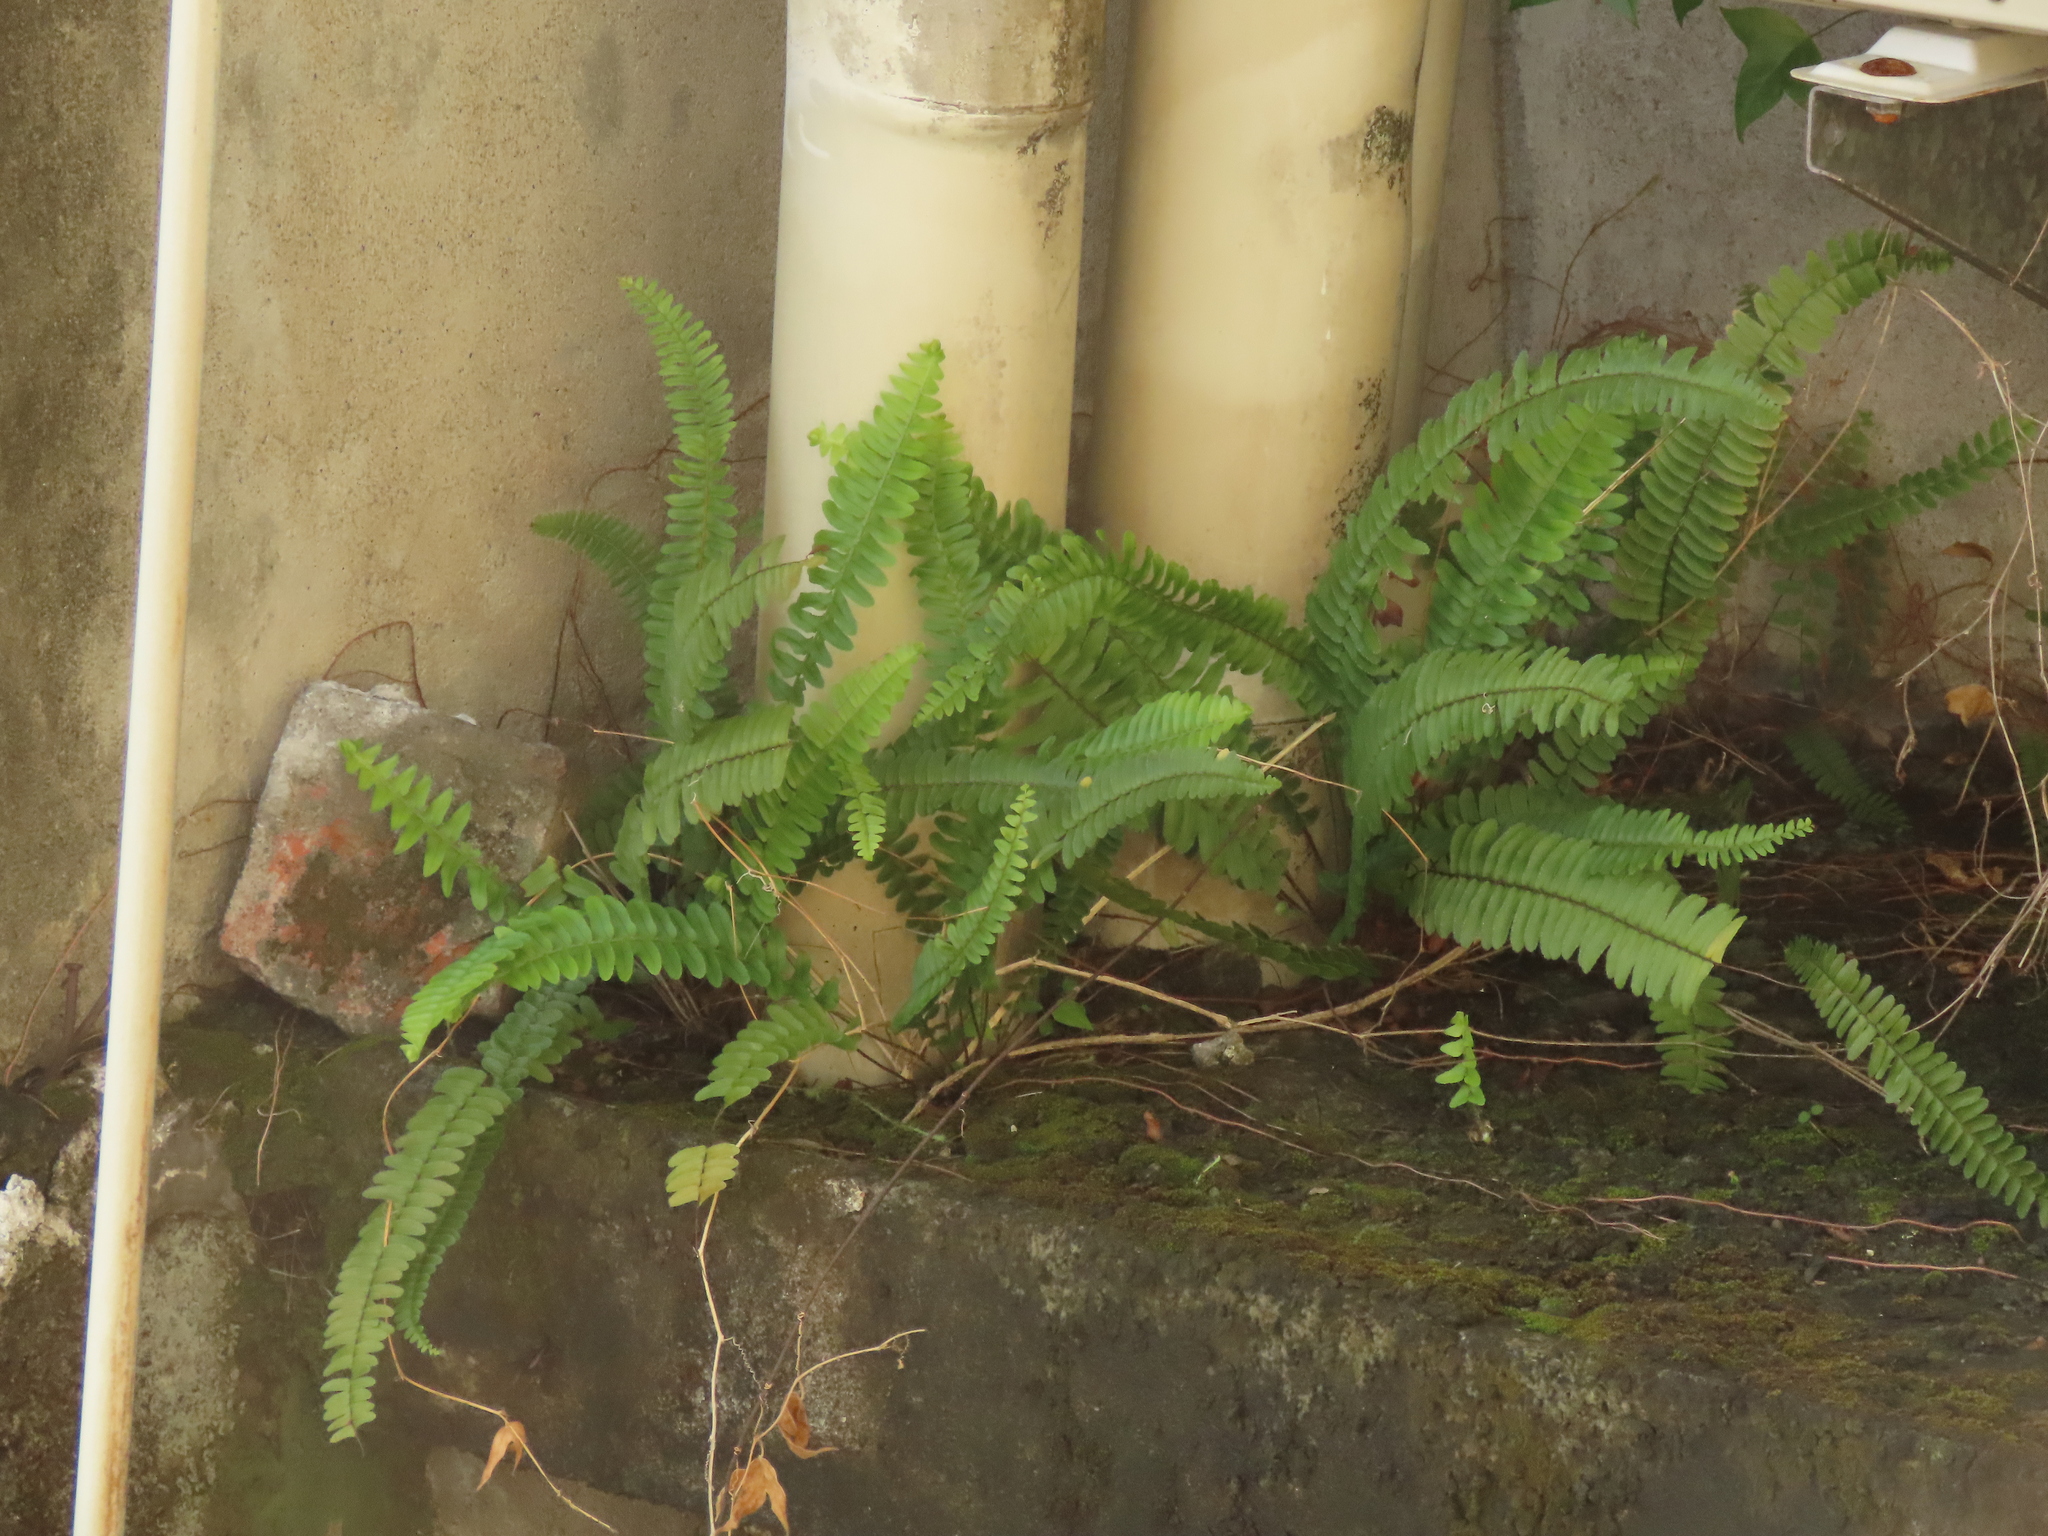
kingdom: Plantae
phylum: Tracheophyta
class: Polypodiopsida
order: Polypodiales
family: Nephrolepidaceae
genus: Nephrolepis
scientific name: Nephrolepis cordifolia
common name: Narrow swordfern
